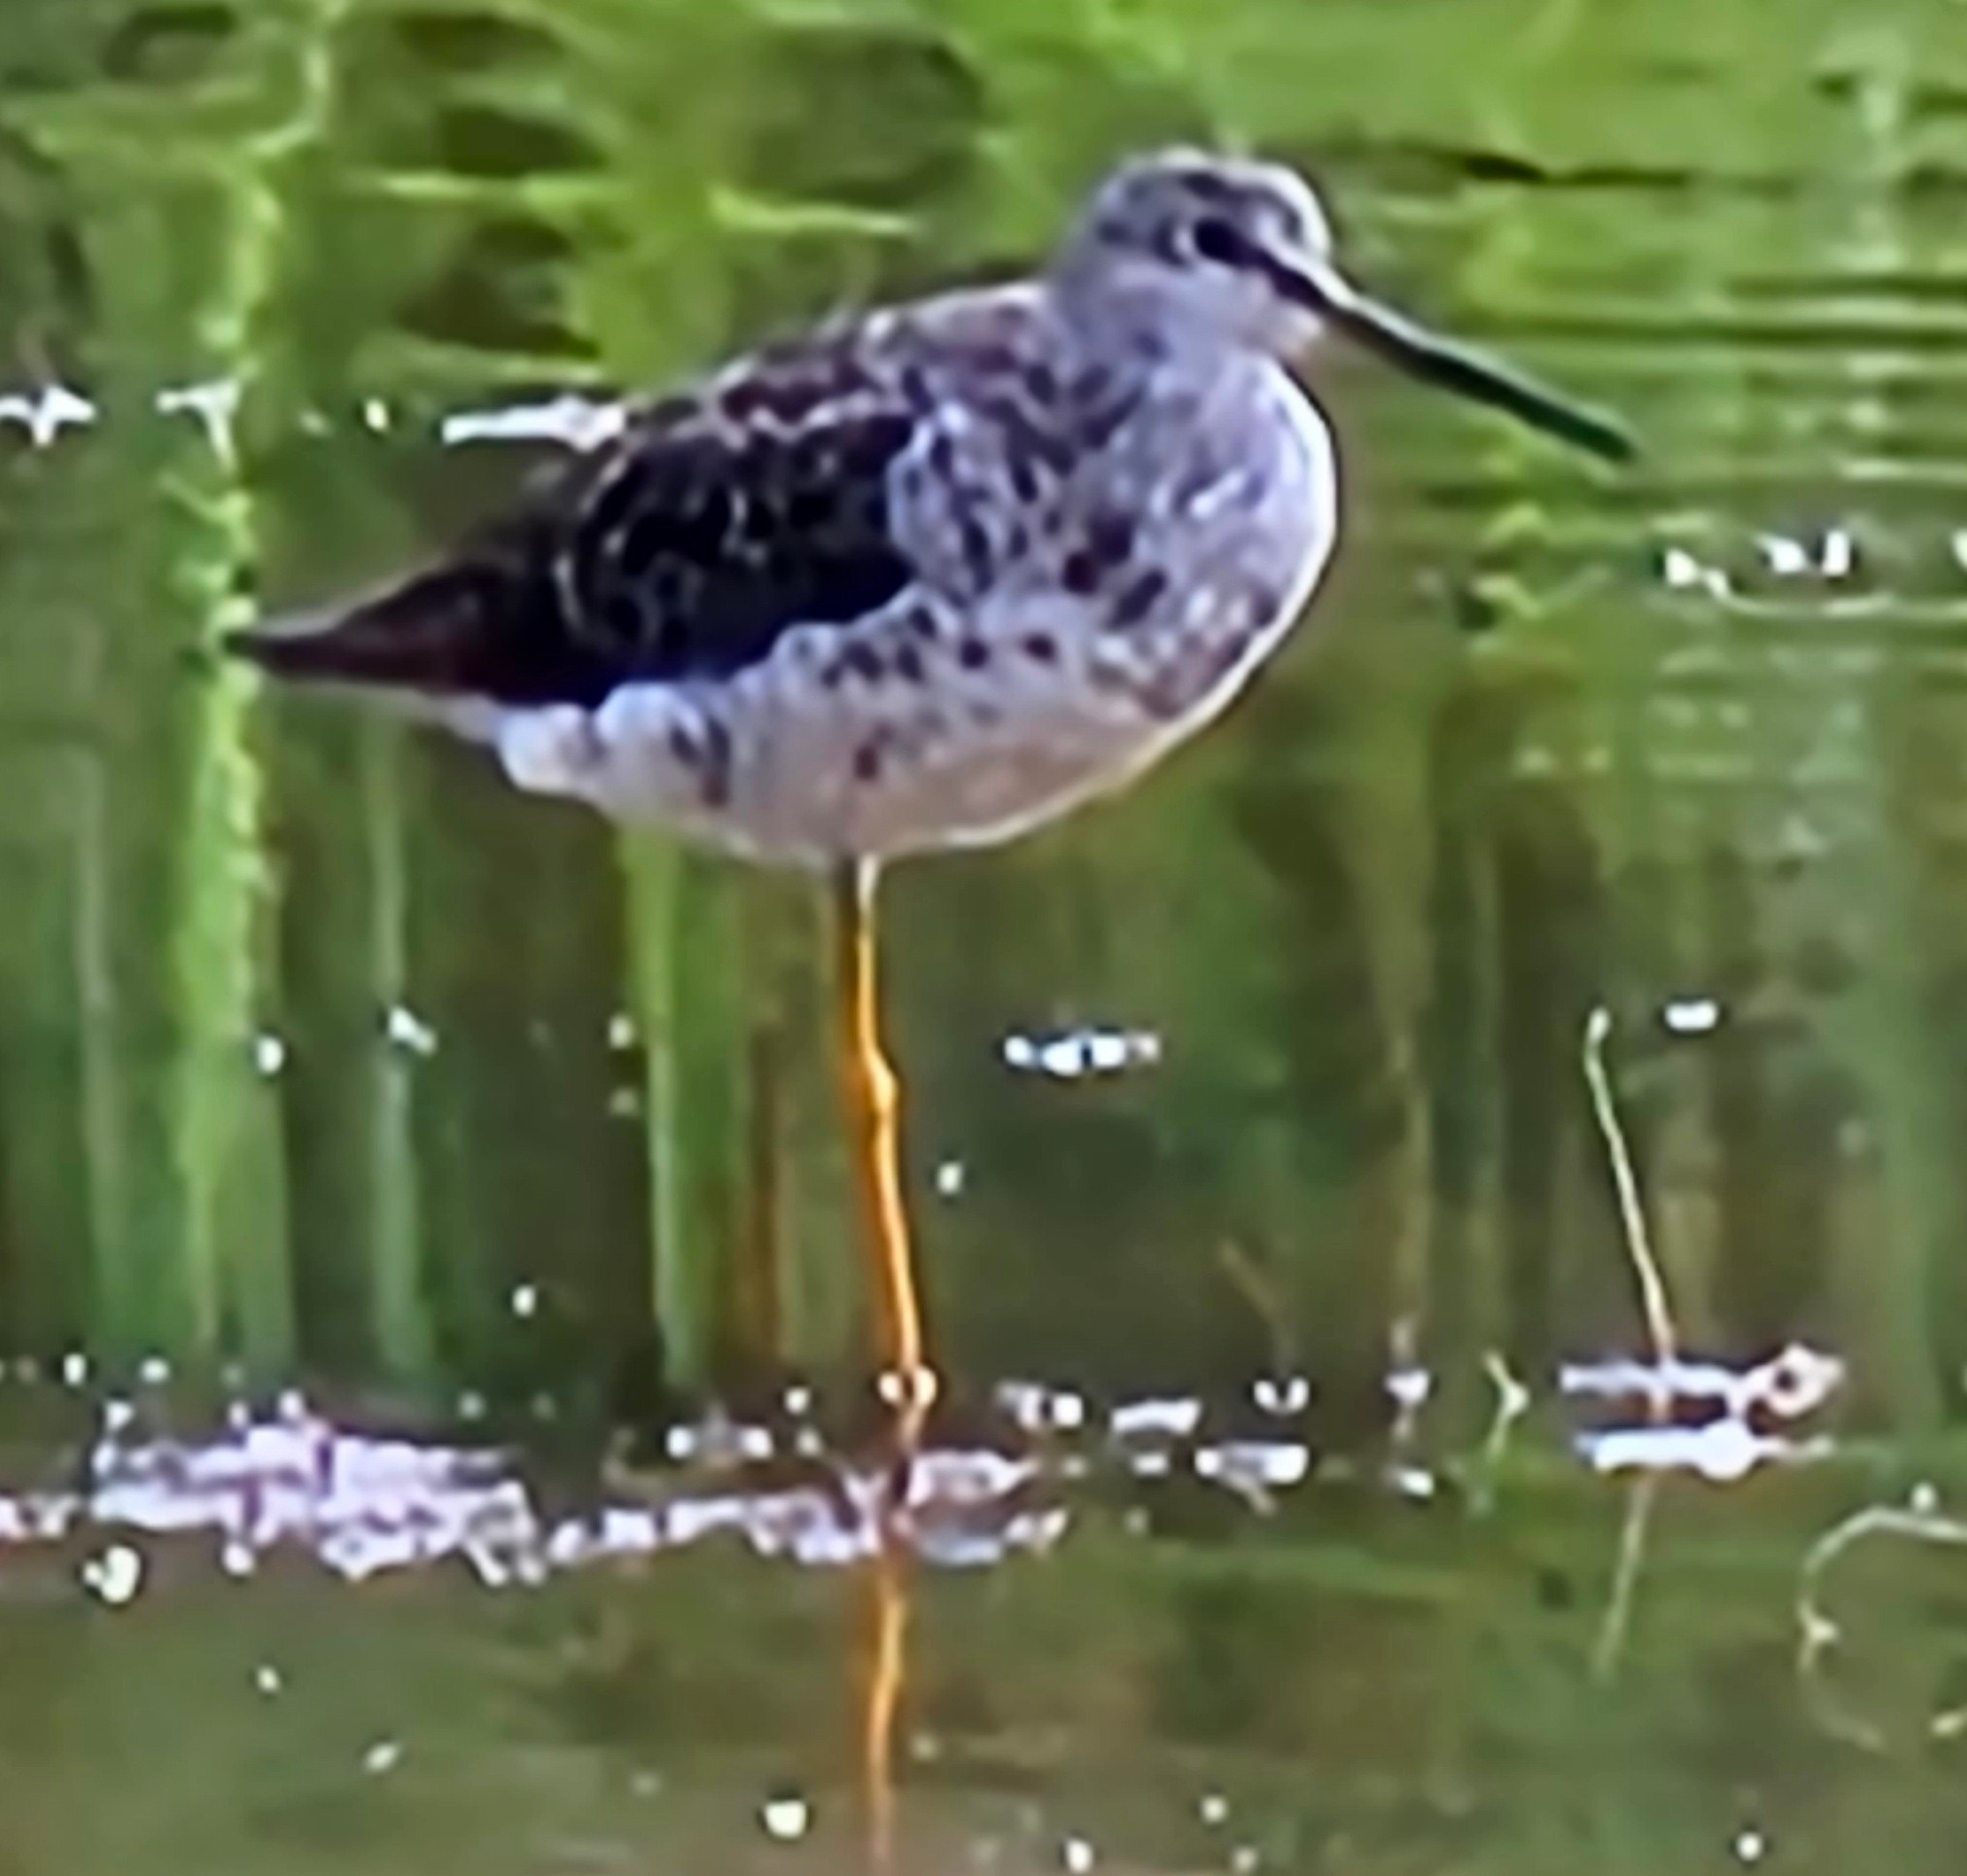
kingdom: Animalia
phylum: Chordata
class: Aves
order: Charadriiformes
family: Scolopacidae
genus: Tringa
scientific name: Tringa melanoleuca
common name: Greater yellowlegs
